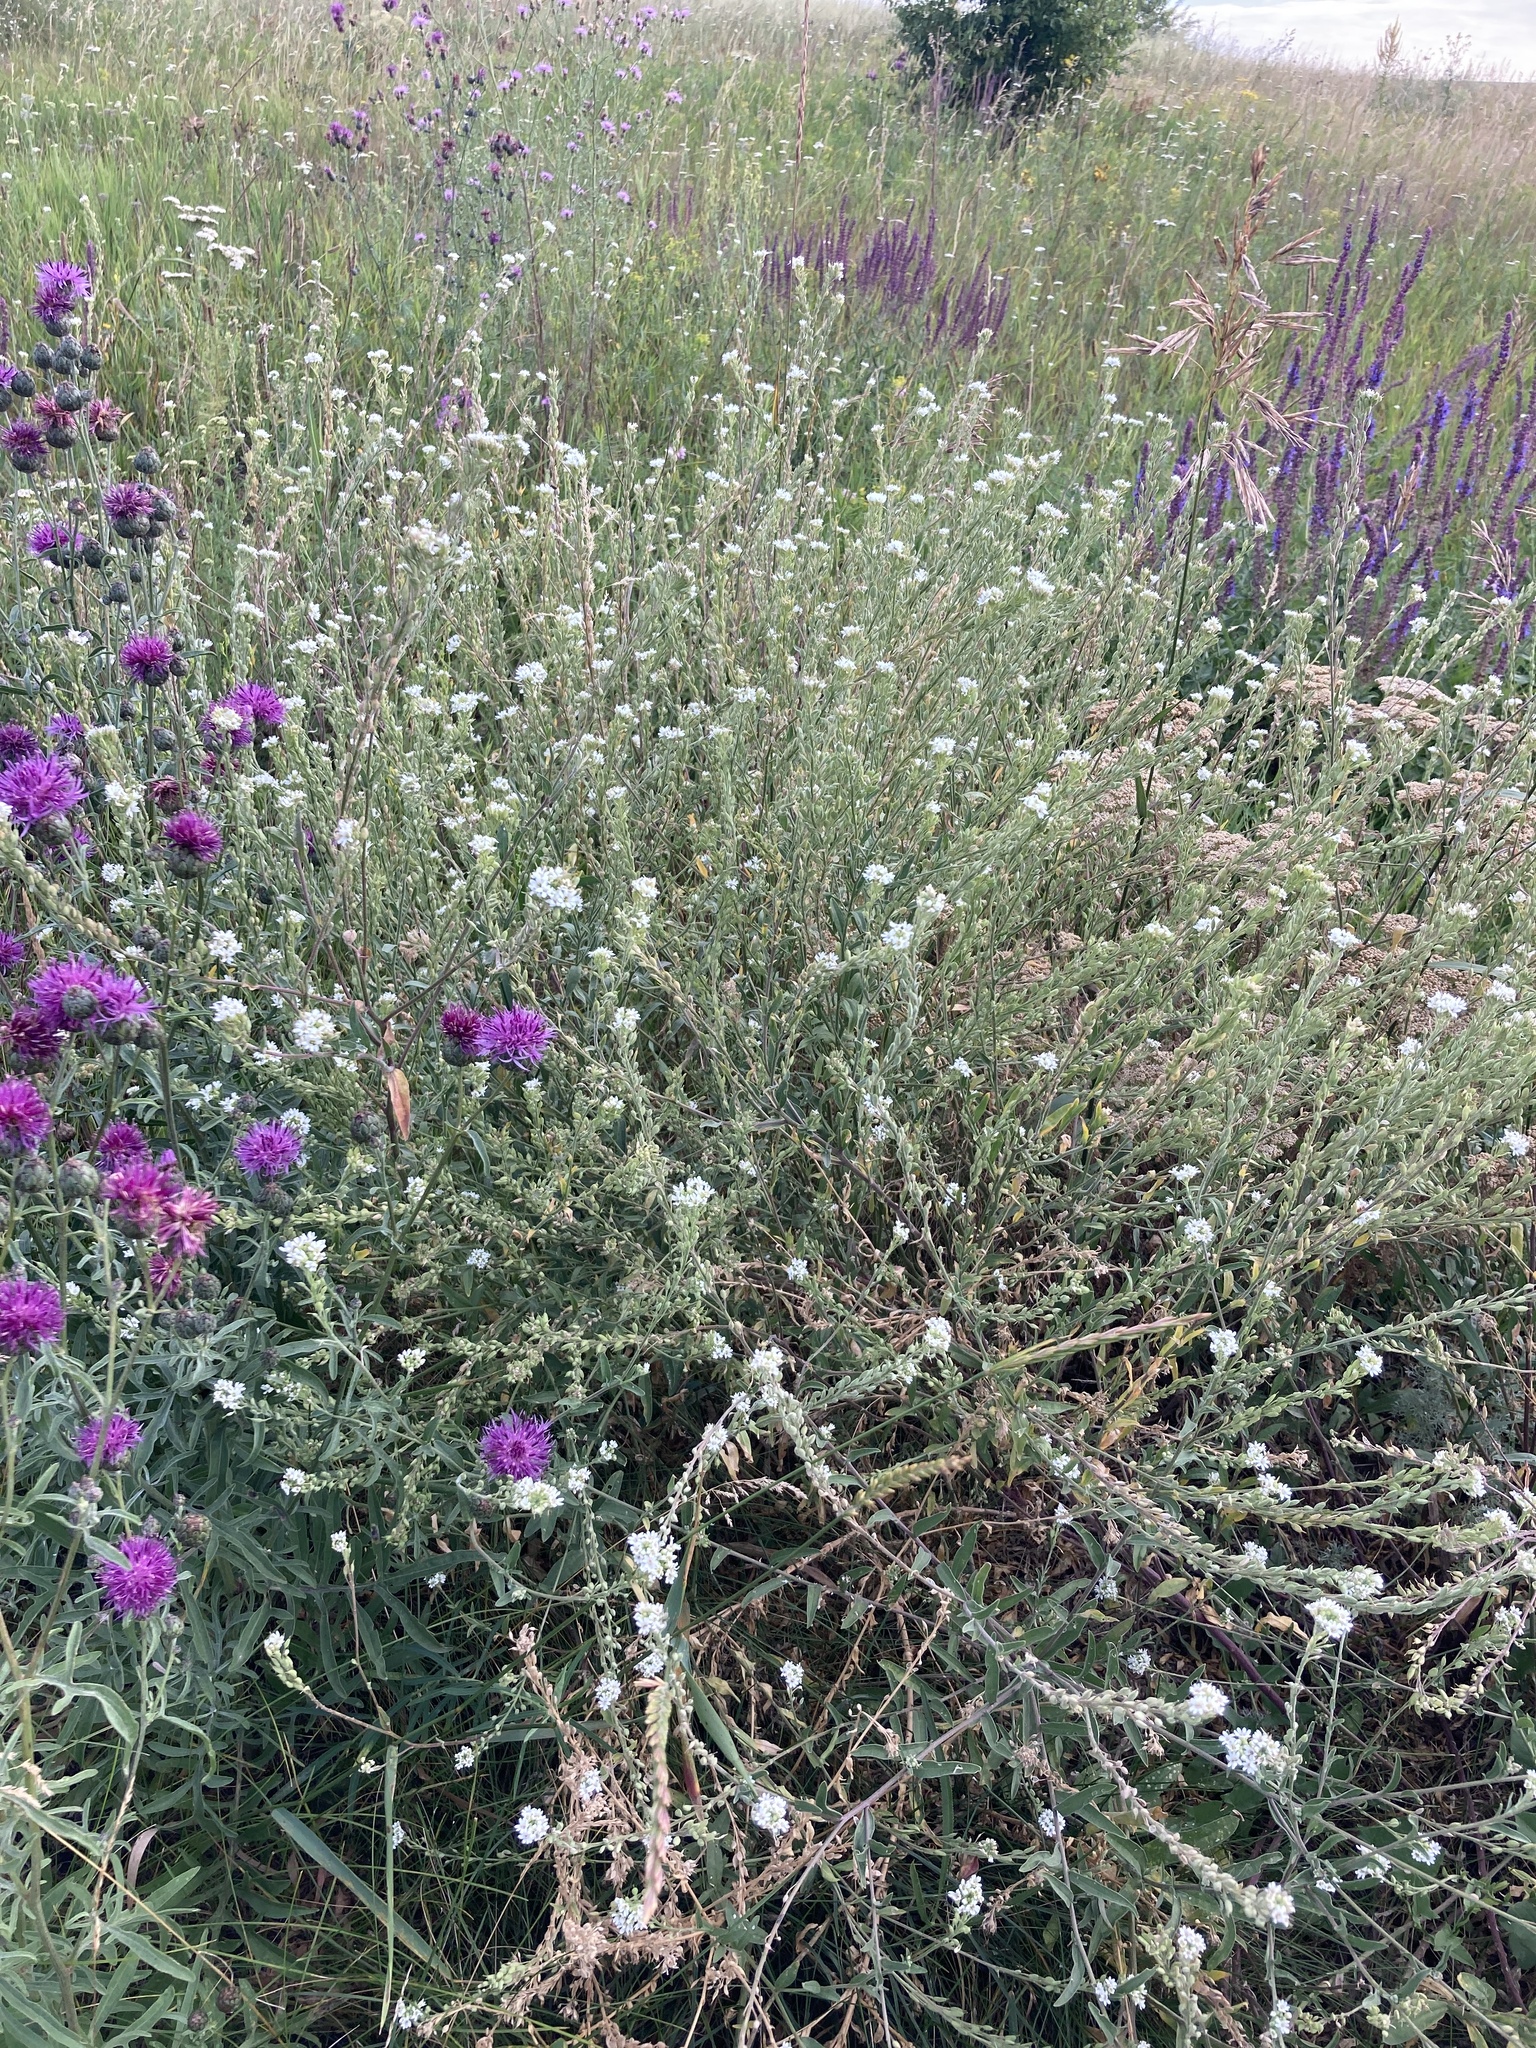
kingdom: Plantae
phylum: Tracheophyta
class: Magnoliopsida
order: Brassicales
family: Brassicaceae
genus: Berteroa
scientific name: Berteroa incana
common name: Hoary alison
